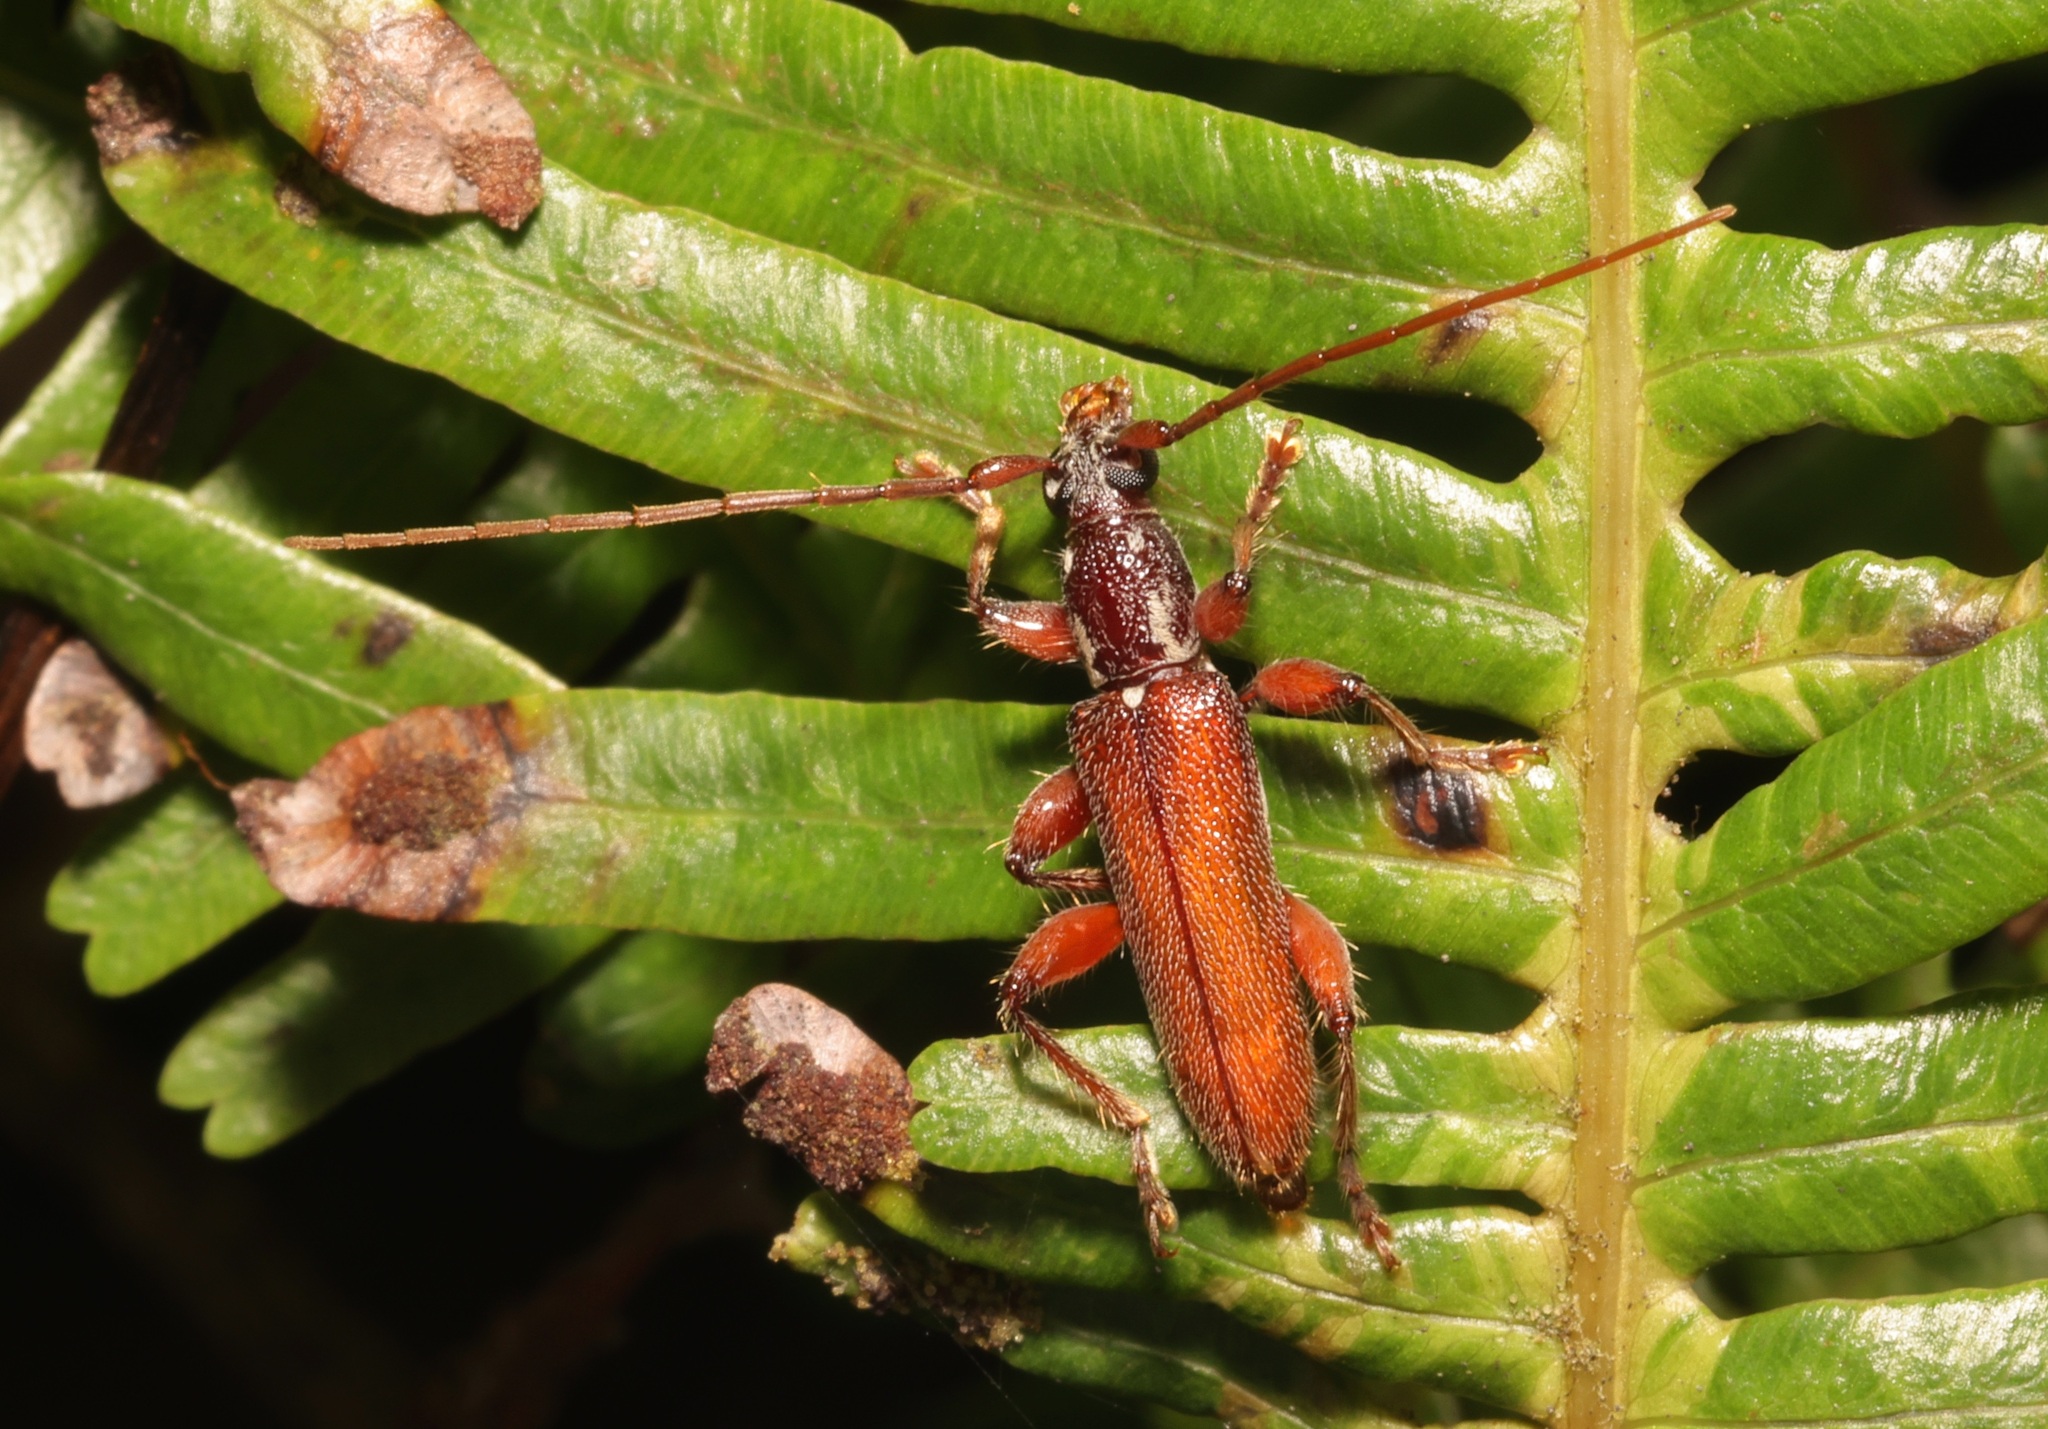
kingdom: Animalia
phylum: Arthropoda
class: Insecta
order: Coleoptera
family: Cerambycidae
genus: Ceresium
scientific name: Ceresium sinicum
